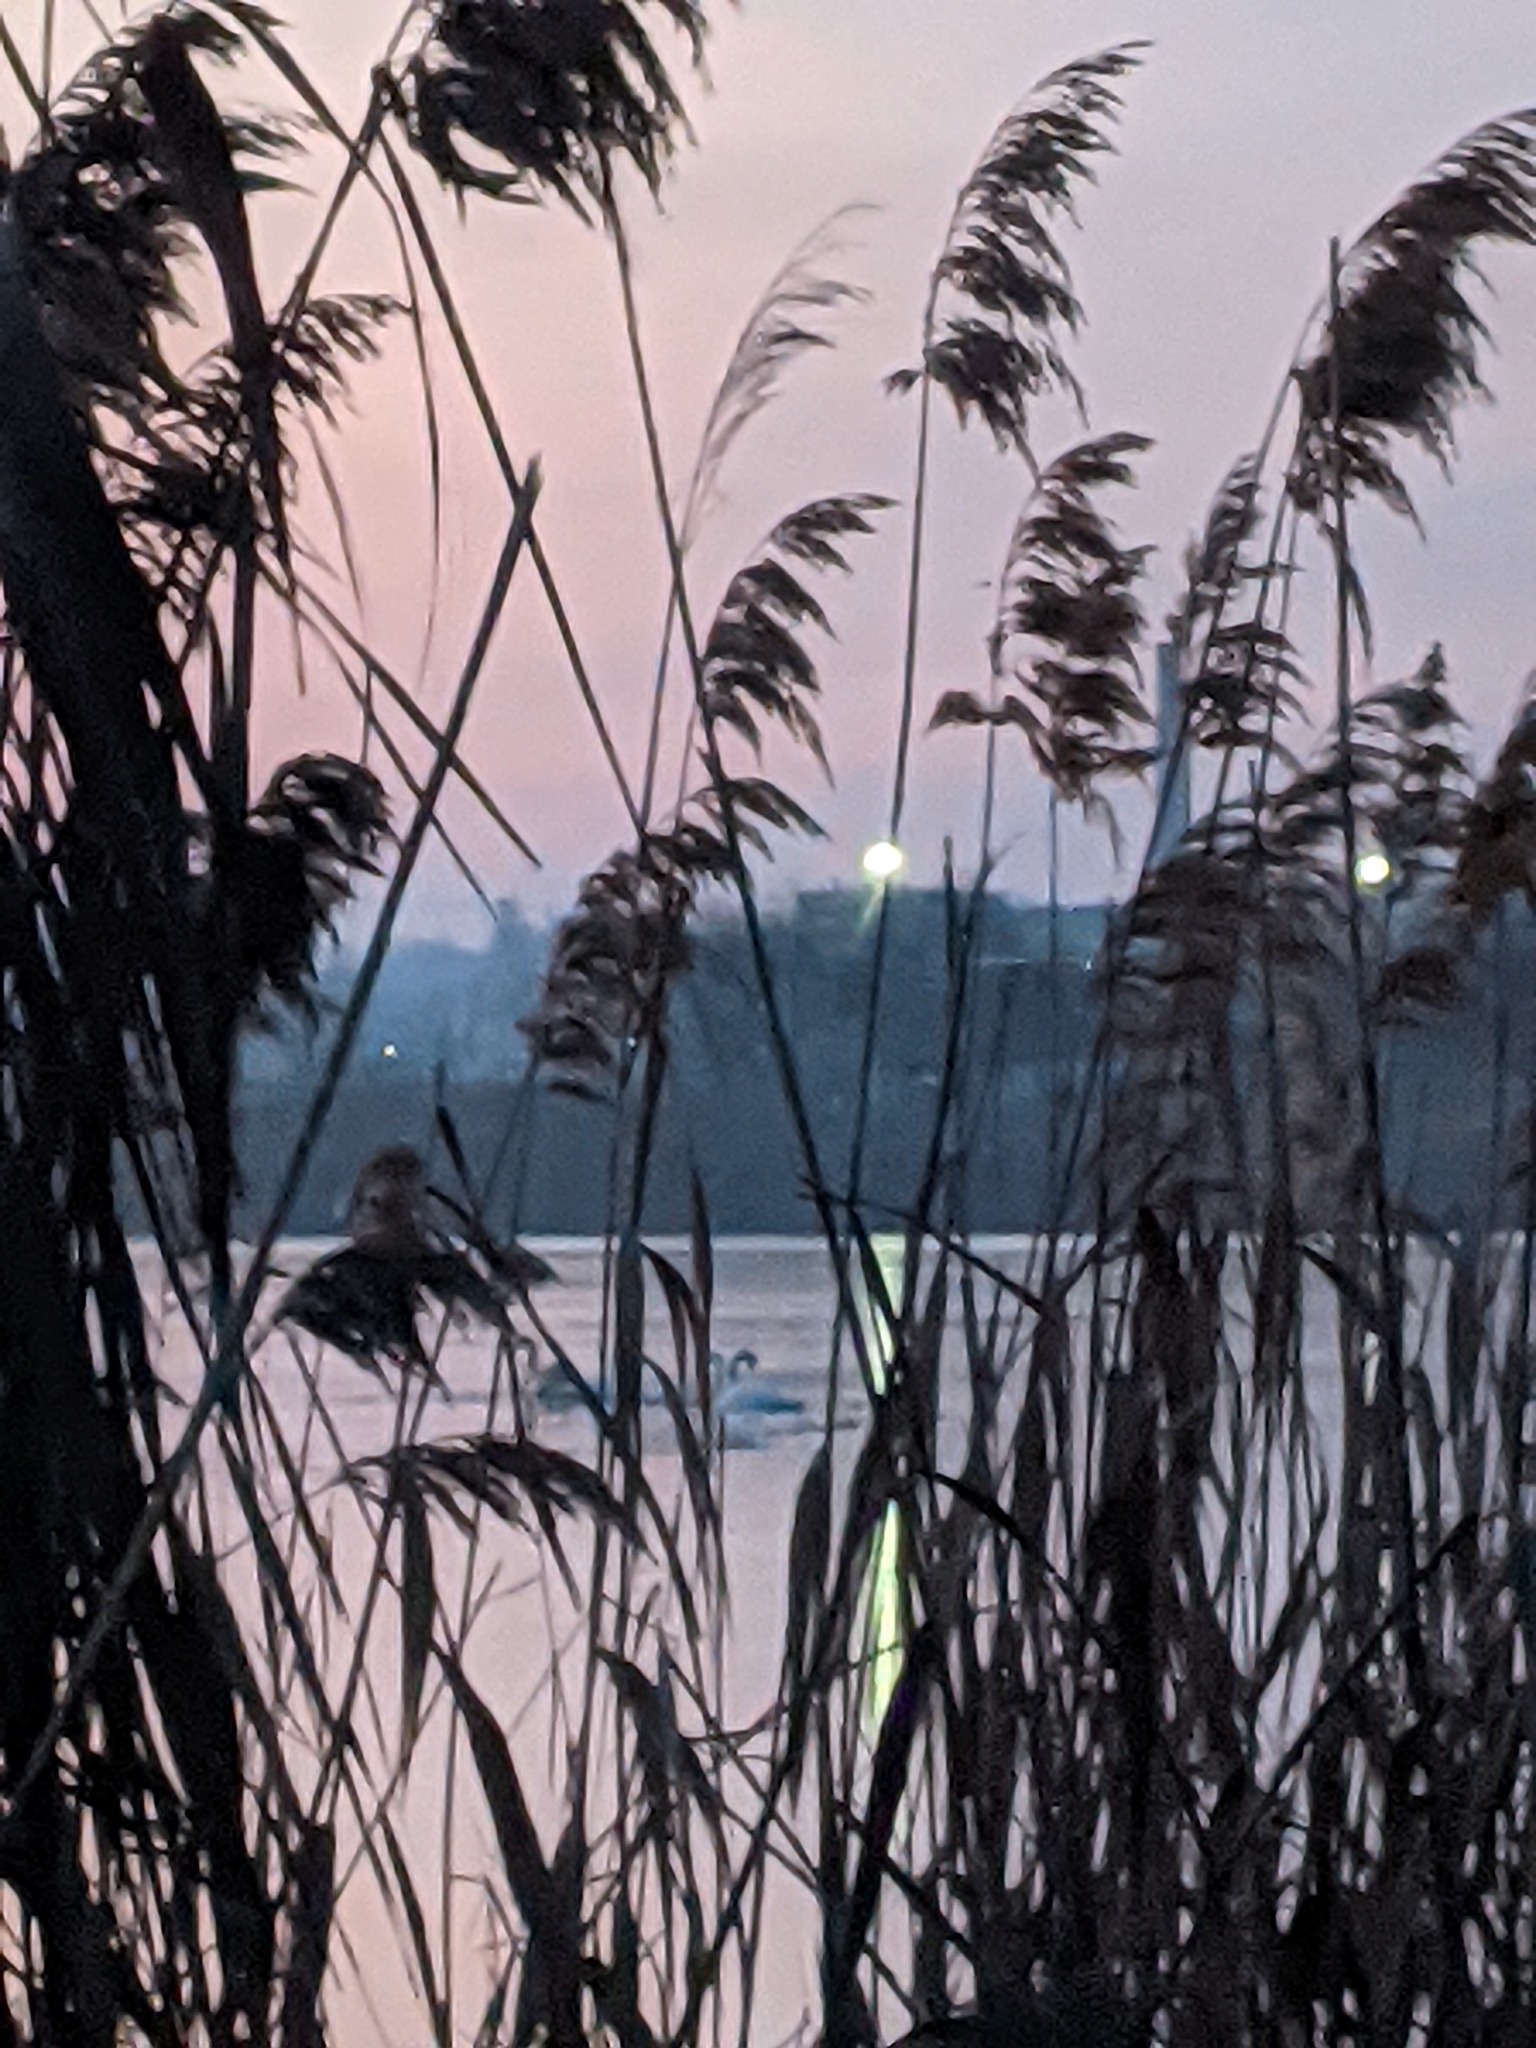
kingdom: Animalia
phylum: Chordata
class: Aves
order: Anseriformes
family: Anatidae
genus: Cygnus
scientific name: Cygnus olor
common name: Mute swan
